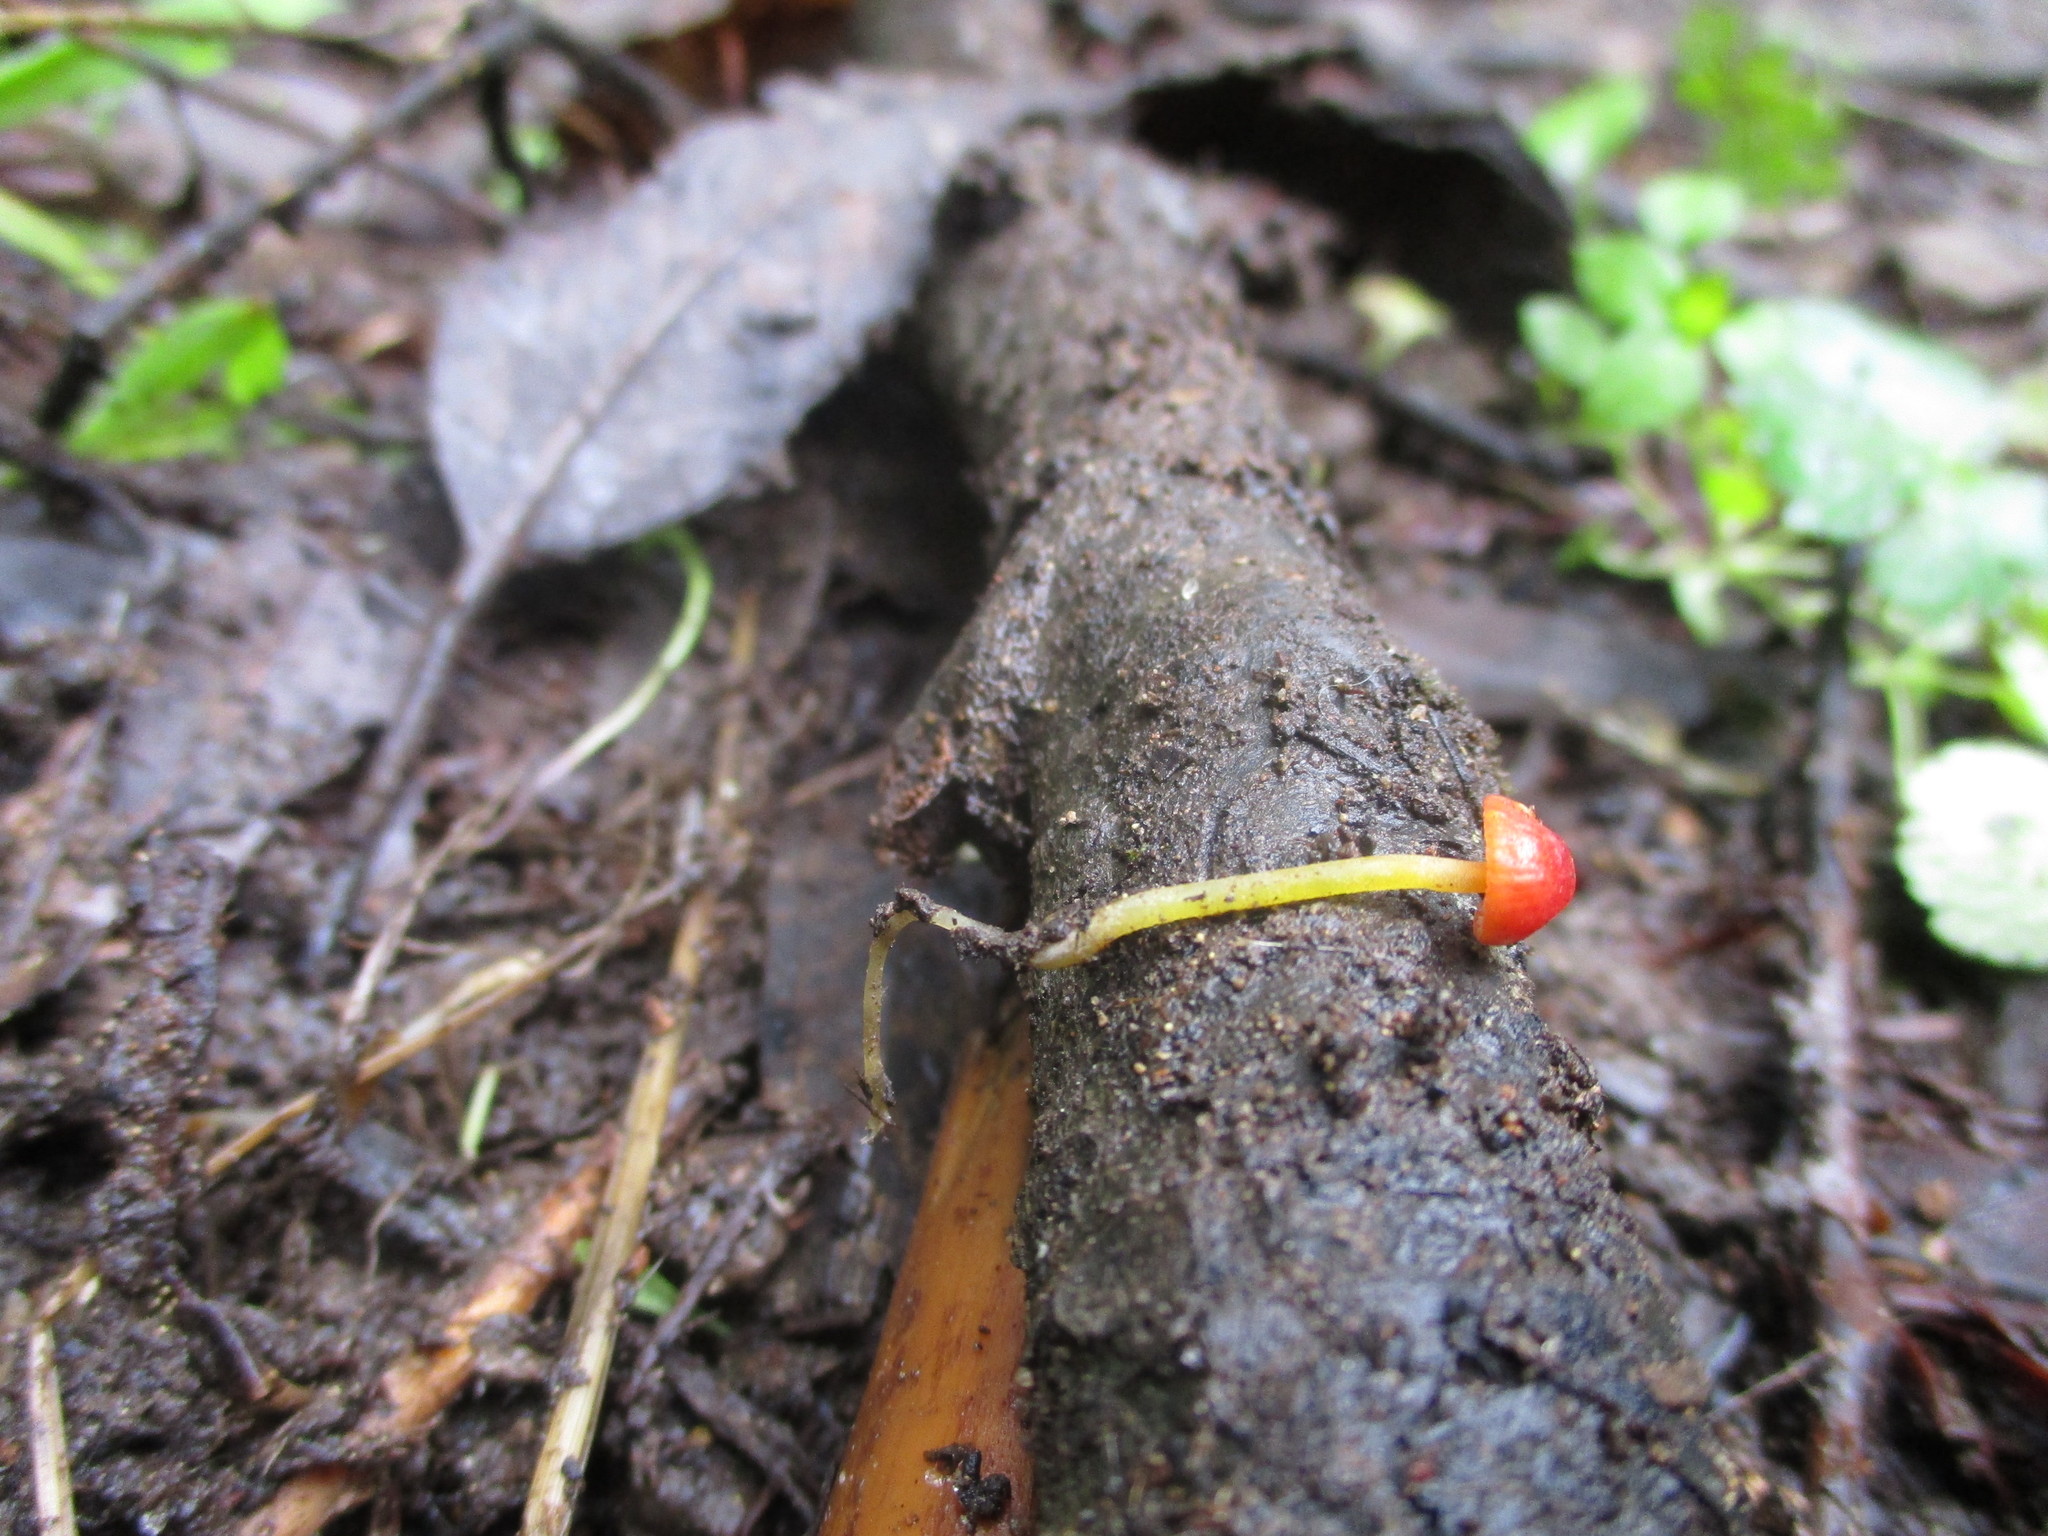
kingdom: Fungi
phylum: Basidiomycota
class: Agaricomycetes
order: Agaricales
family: Mycenaceae
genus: Mycena
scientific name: Mycena acicula
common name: Orange bonnet
